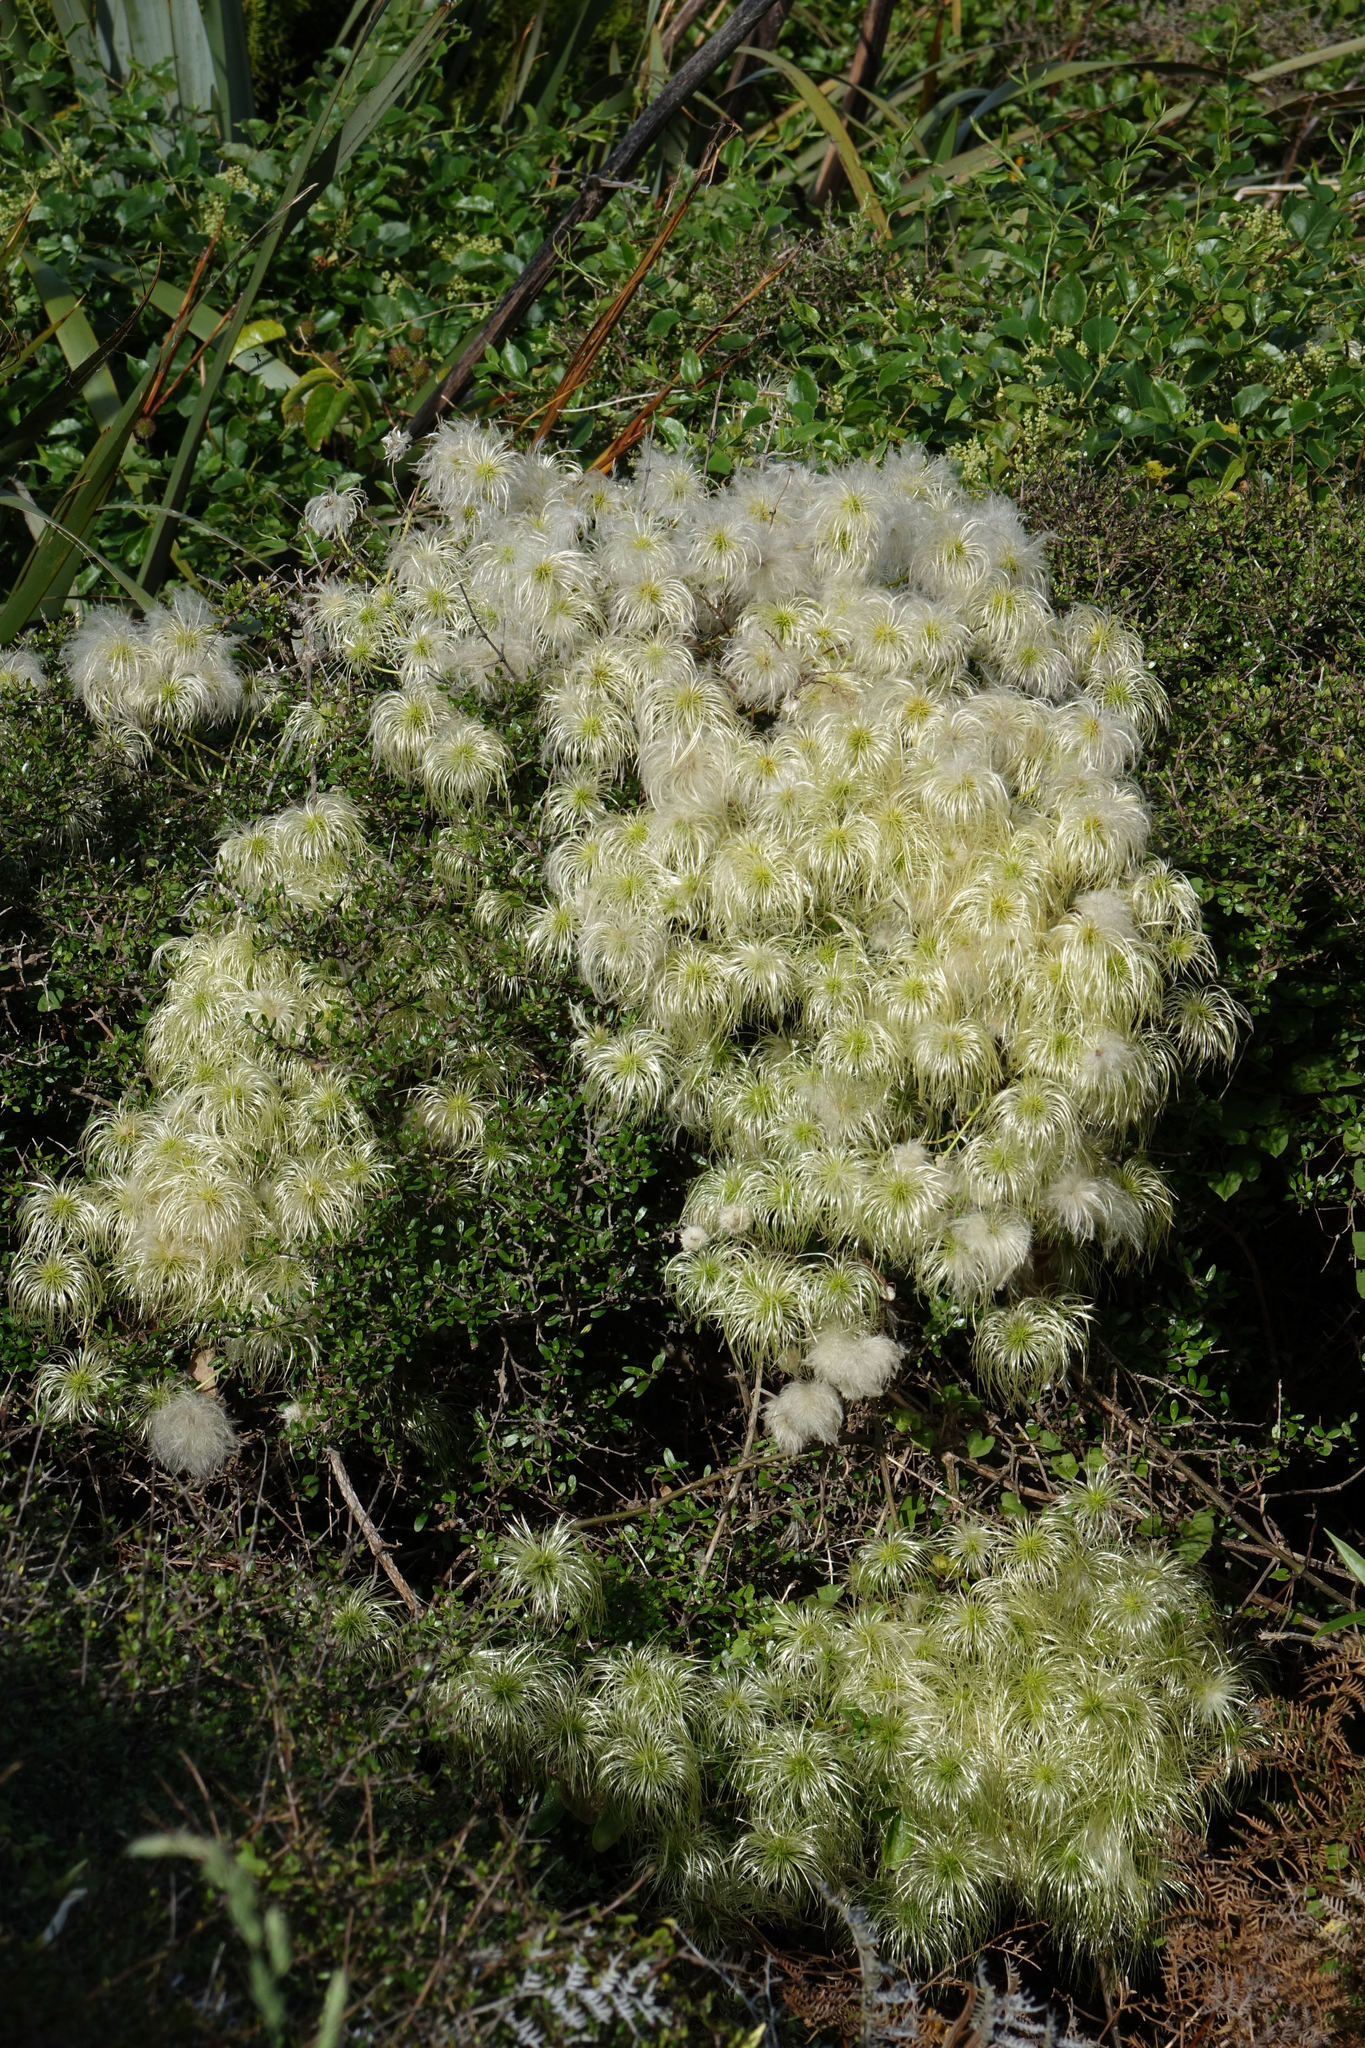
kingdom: Plantae
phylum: Tracheophyta
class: Magnoliopsida
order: Ranunculales
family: Ranunculaceae
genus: Clematis
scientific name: Clematis paniculata
